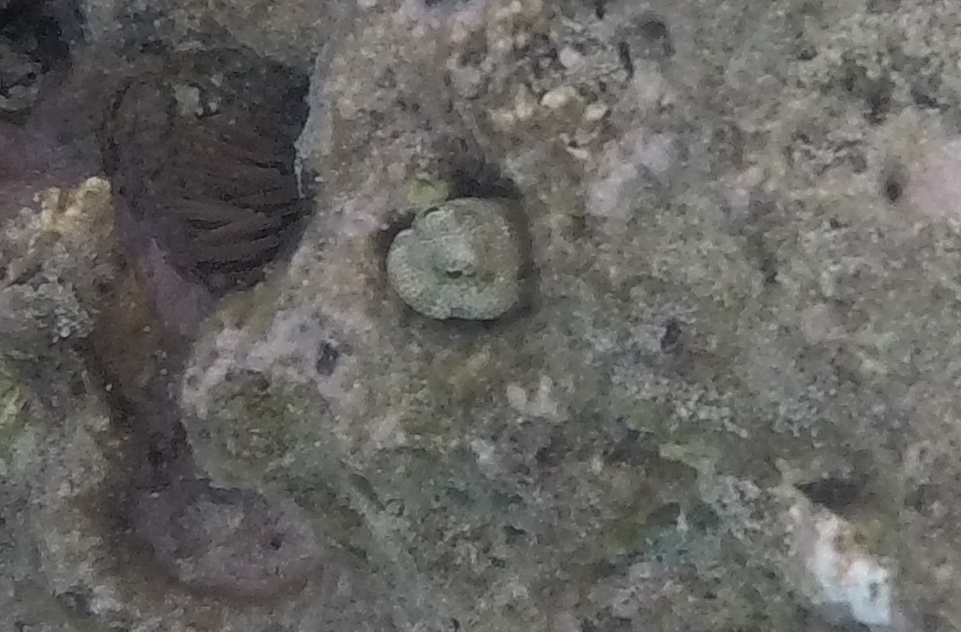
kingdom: Animalia
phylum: Chordata
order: Perciformes
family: Blenniidae
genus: Blenniella
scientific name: Blenniella gibbifrons
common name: Picture rockskipper
